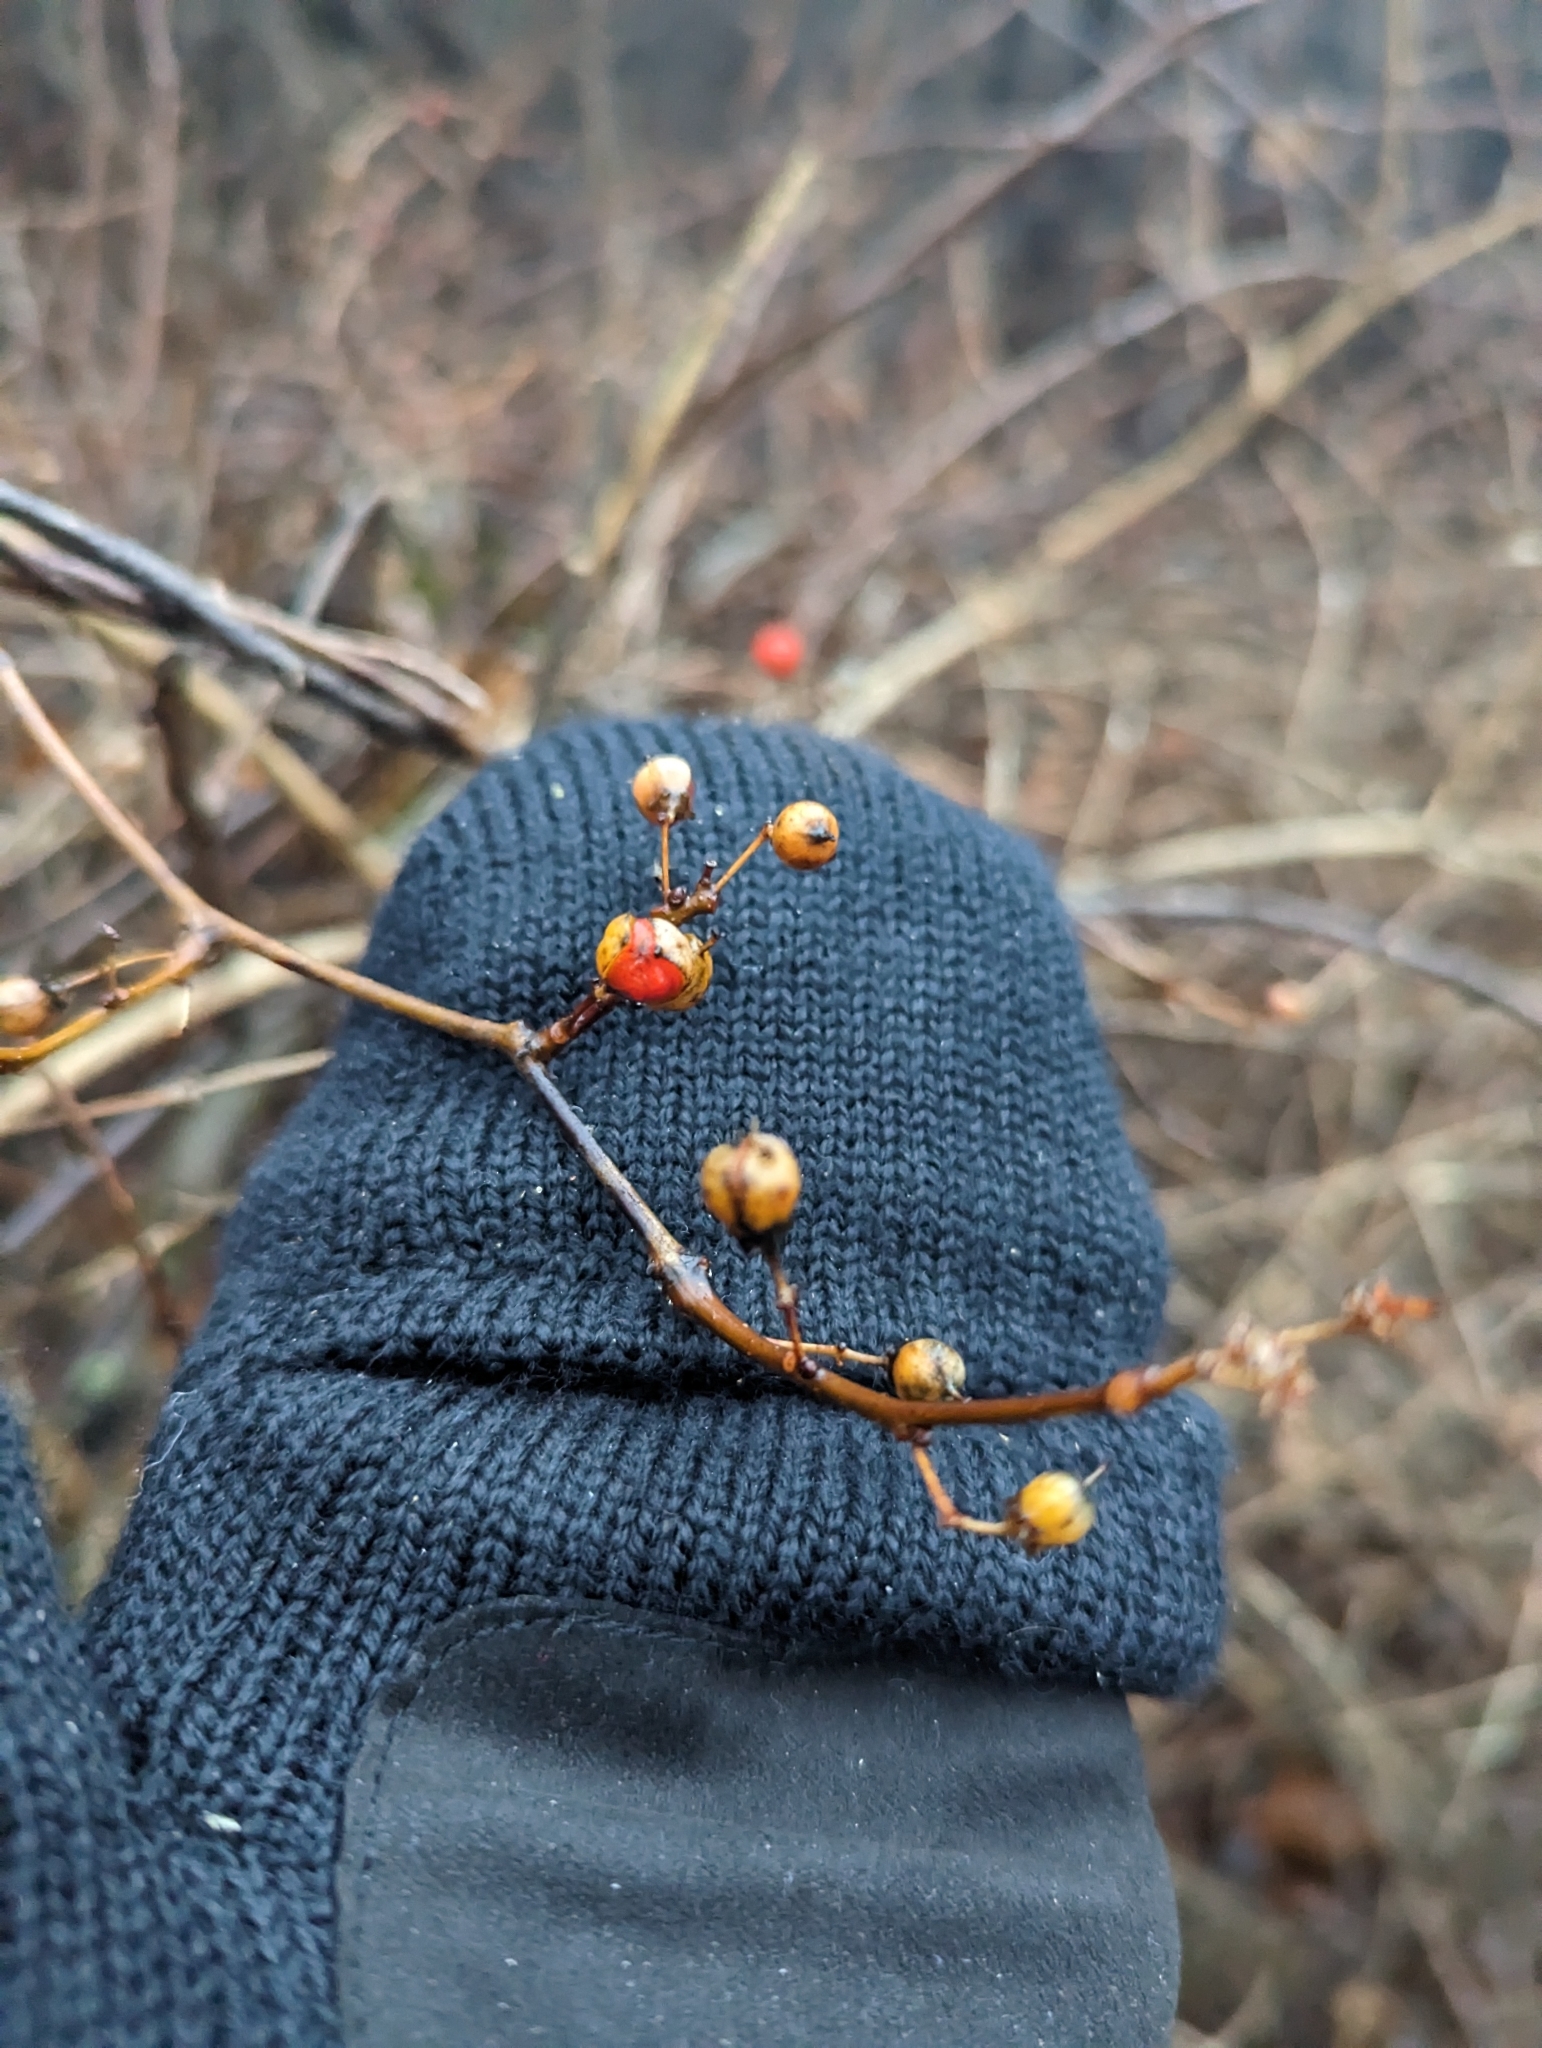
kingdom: Plantae
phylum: Tracheophyta
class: Magnoliopsida
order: Celastrales
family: Celastraceae
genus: Celastrus
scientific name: Celastrus orbiculatus
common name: Oriental bittersweet
